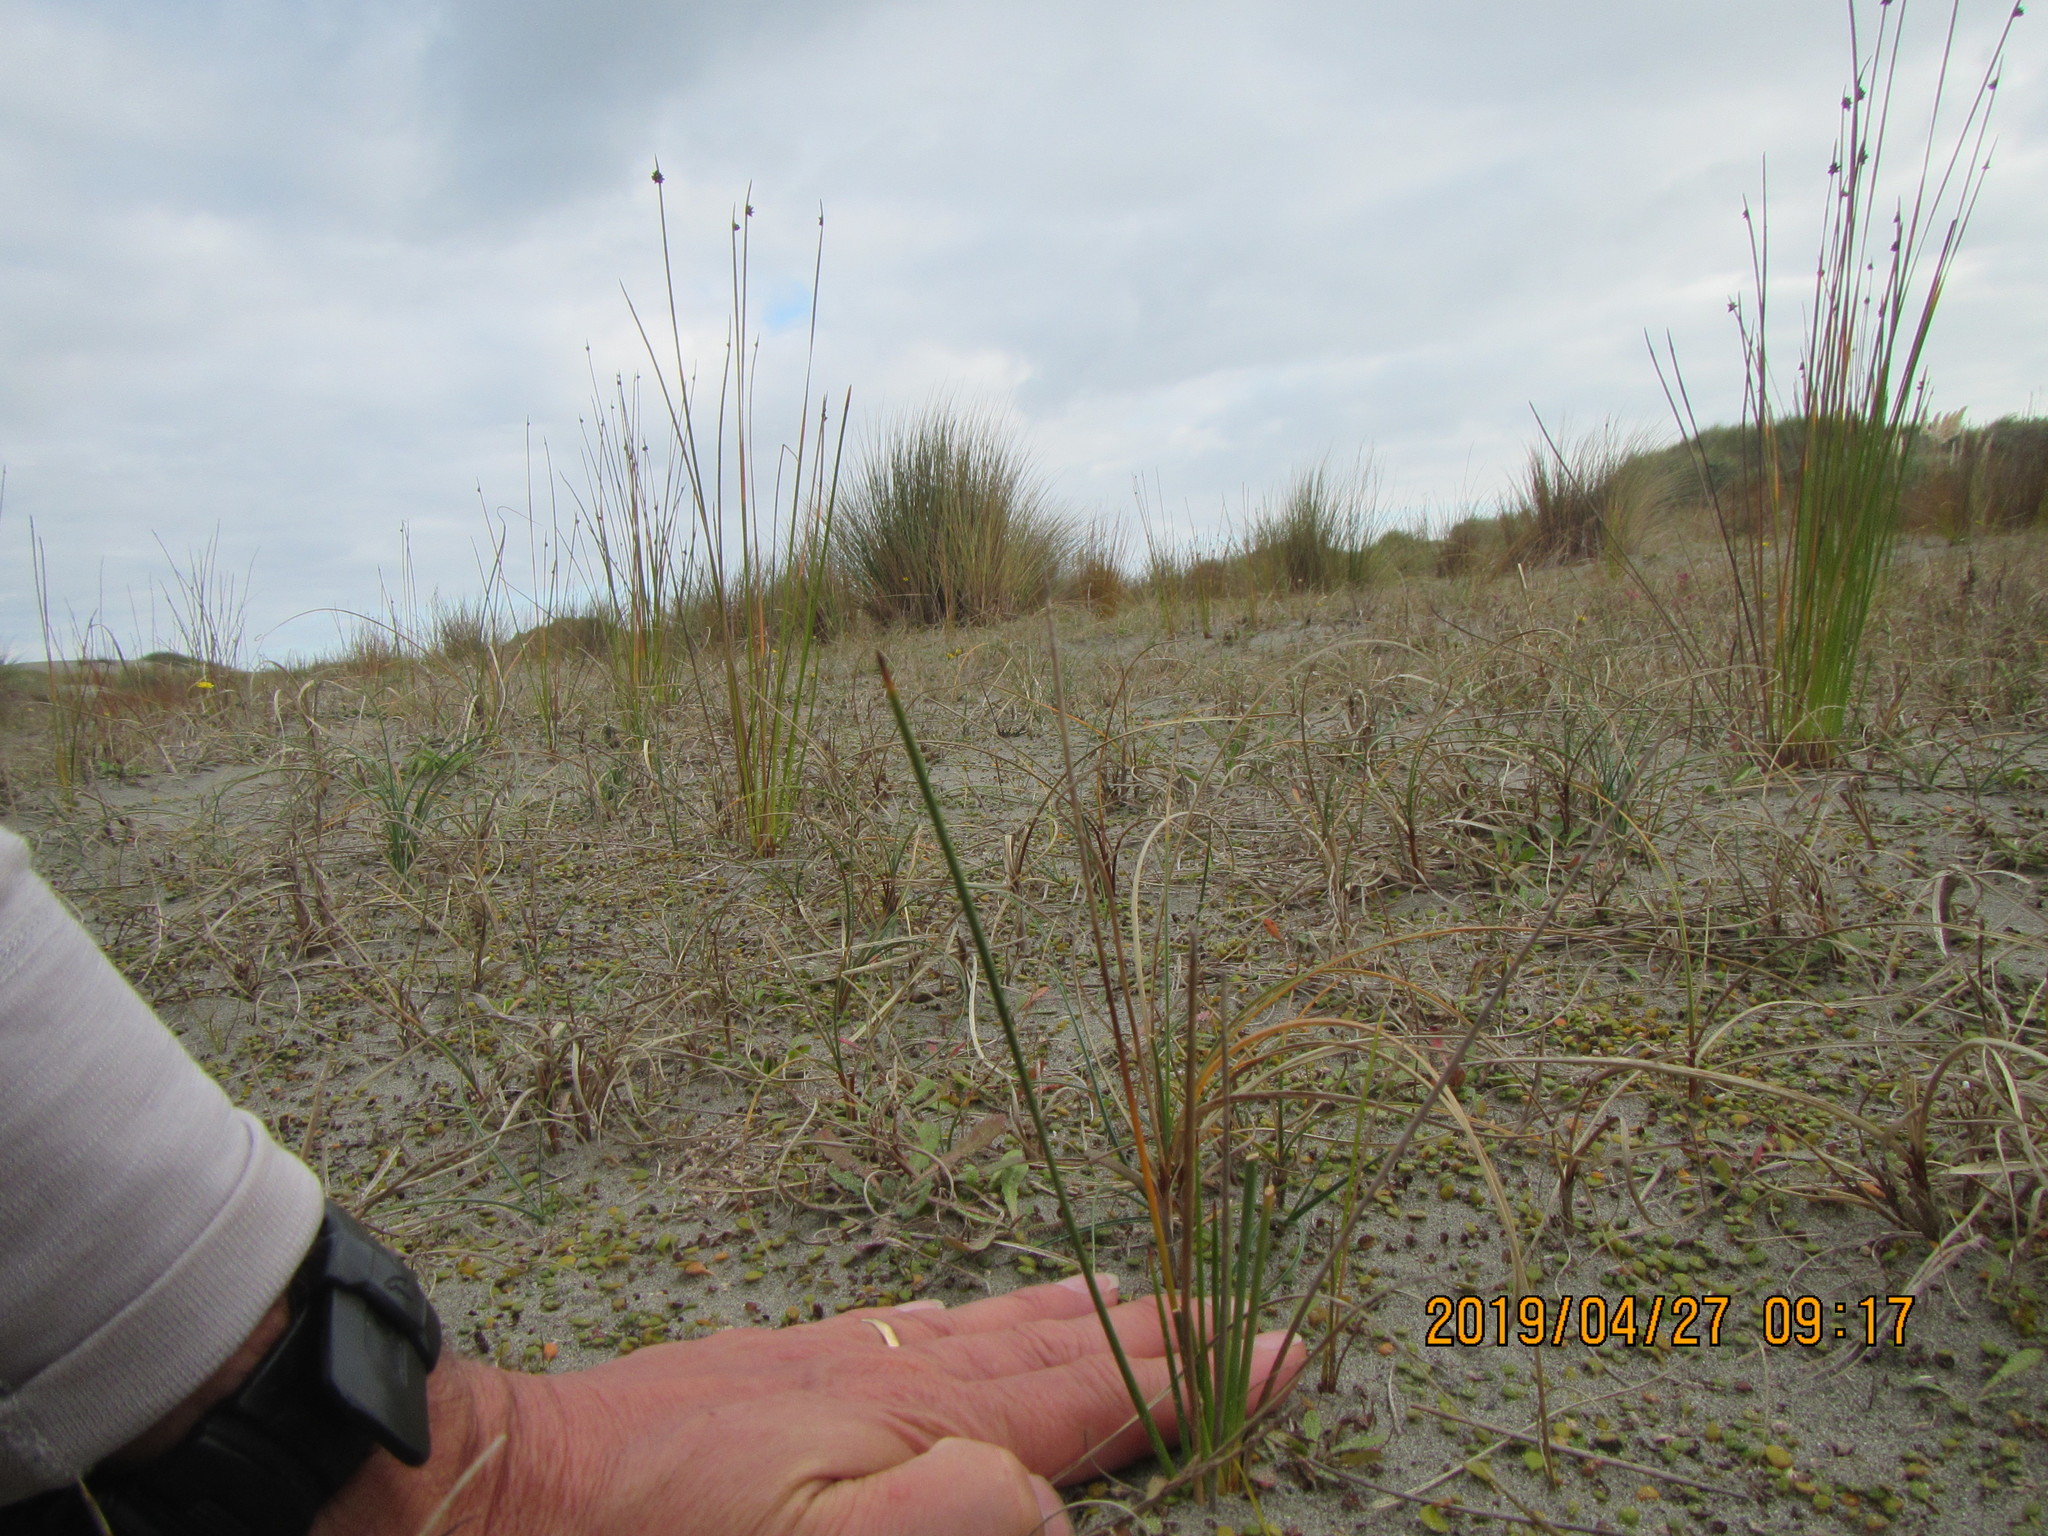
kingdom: Plantae
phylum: Tracheophyta
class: Liliopsida
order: Poales
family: Cyperaceae
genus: Ficinia
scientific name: Ficinia nodosa
